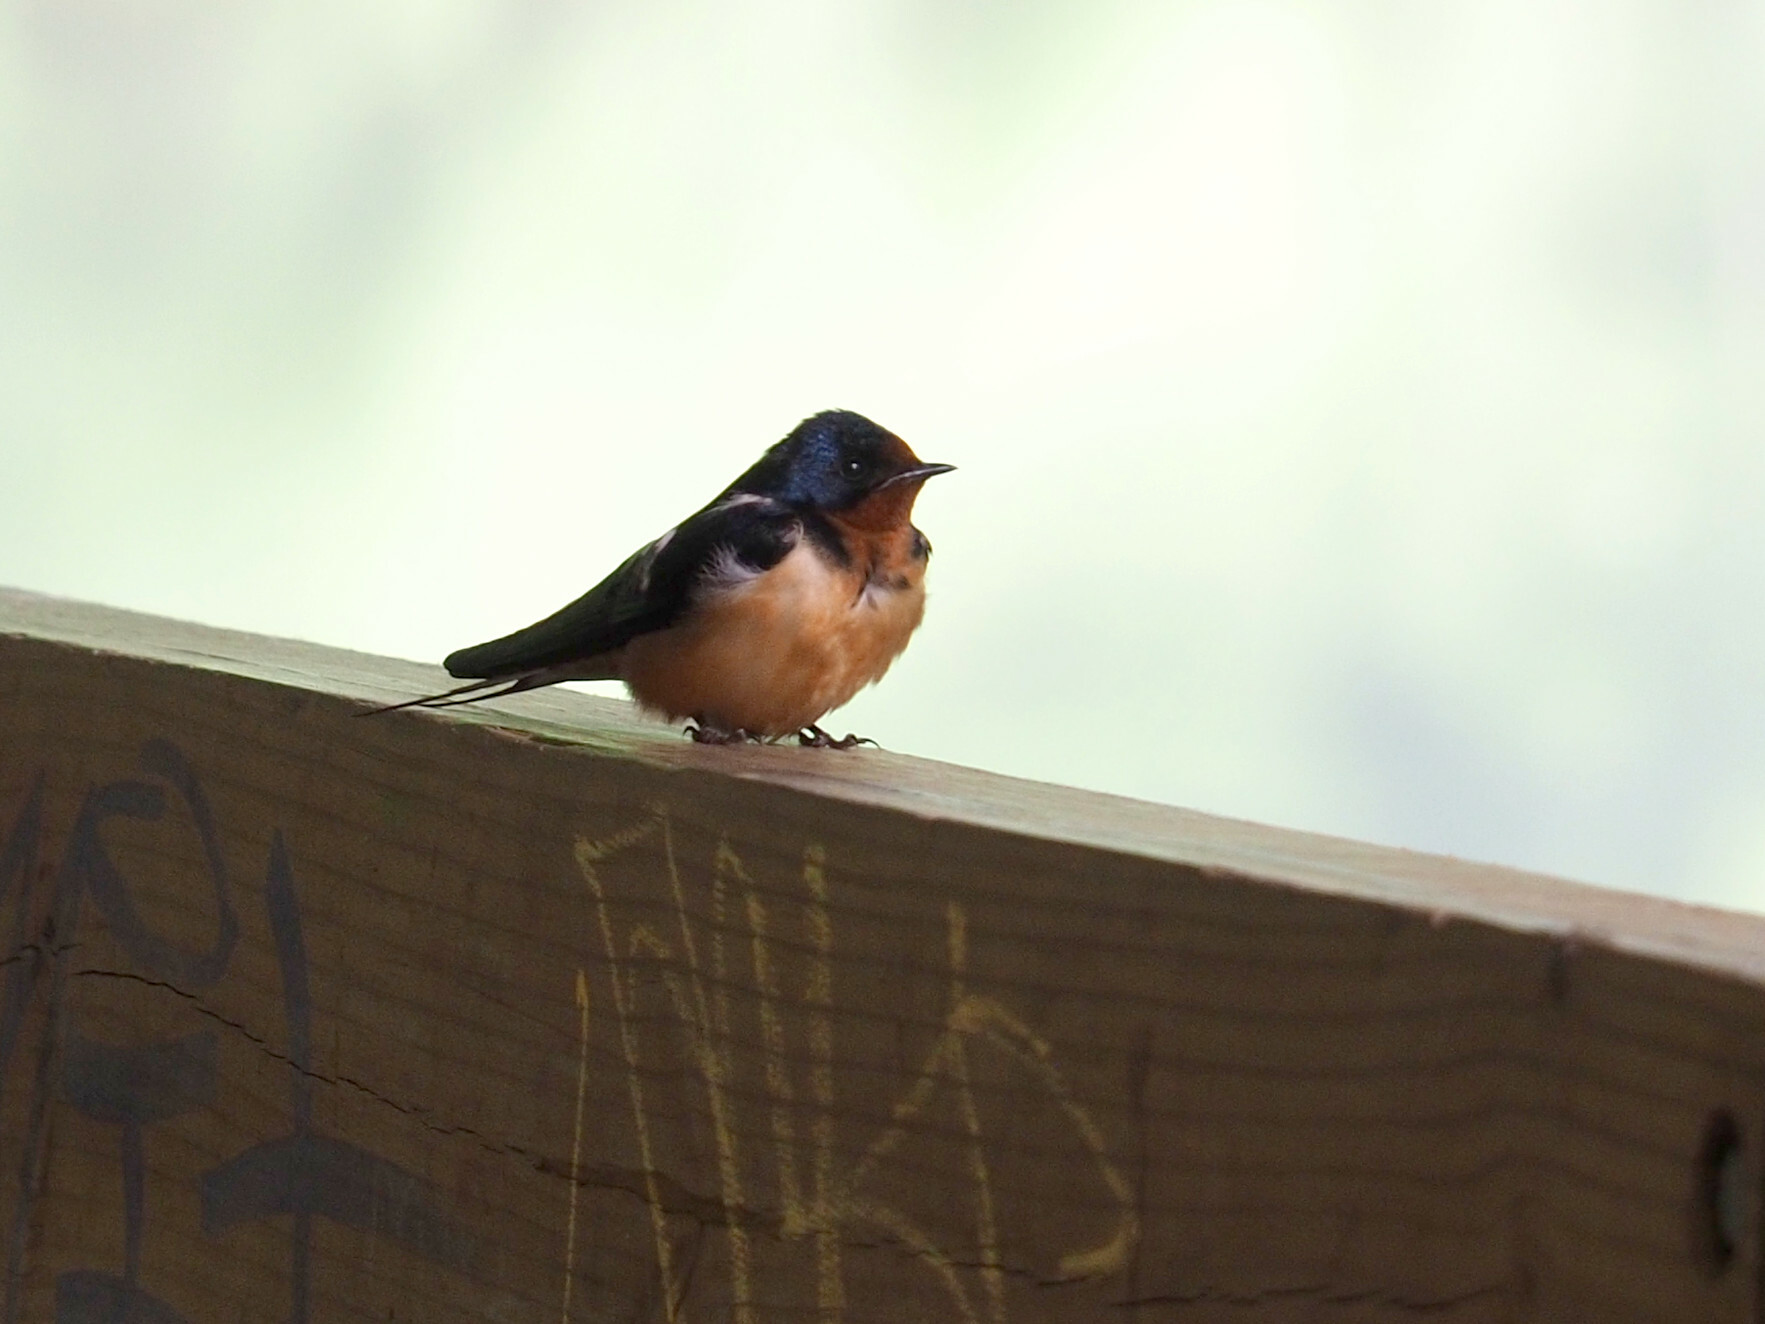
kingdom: Animalia
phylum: Chordata
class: Aves
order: Passeriformes
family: Hirundinidae
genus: Hirundo
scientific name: Hirundo rustica
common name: Barn swallow
